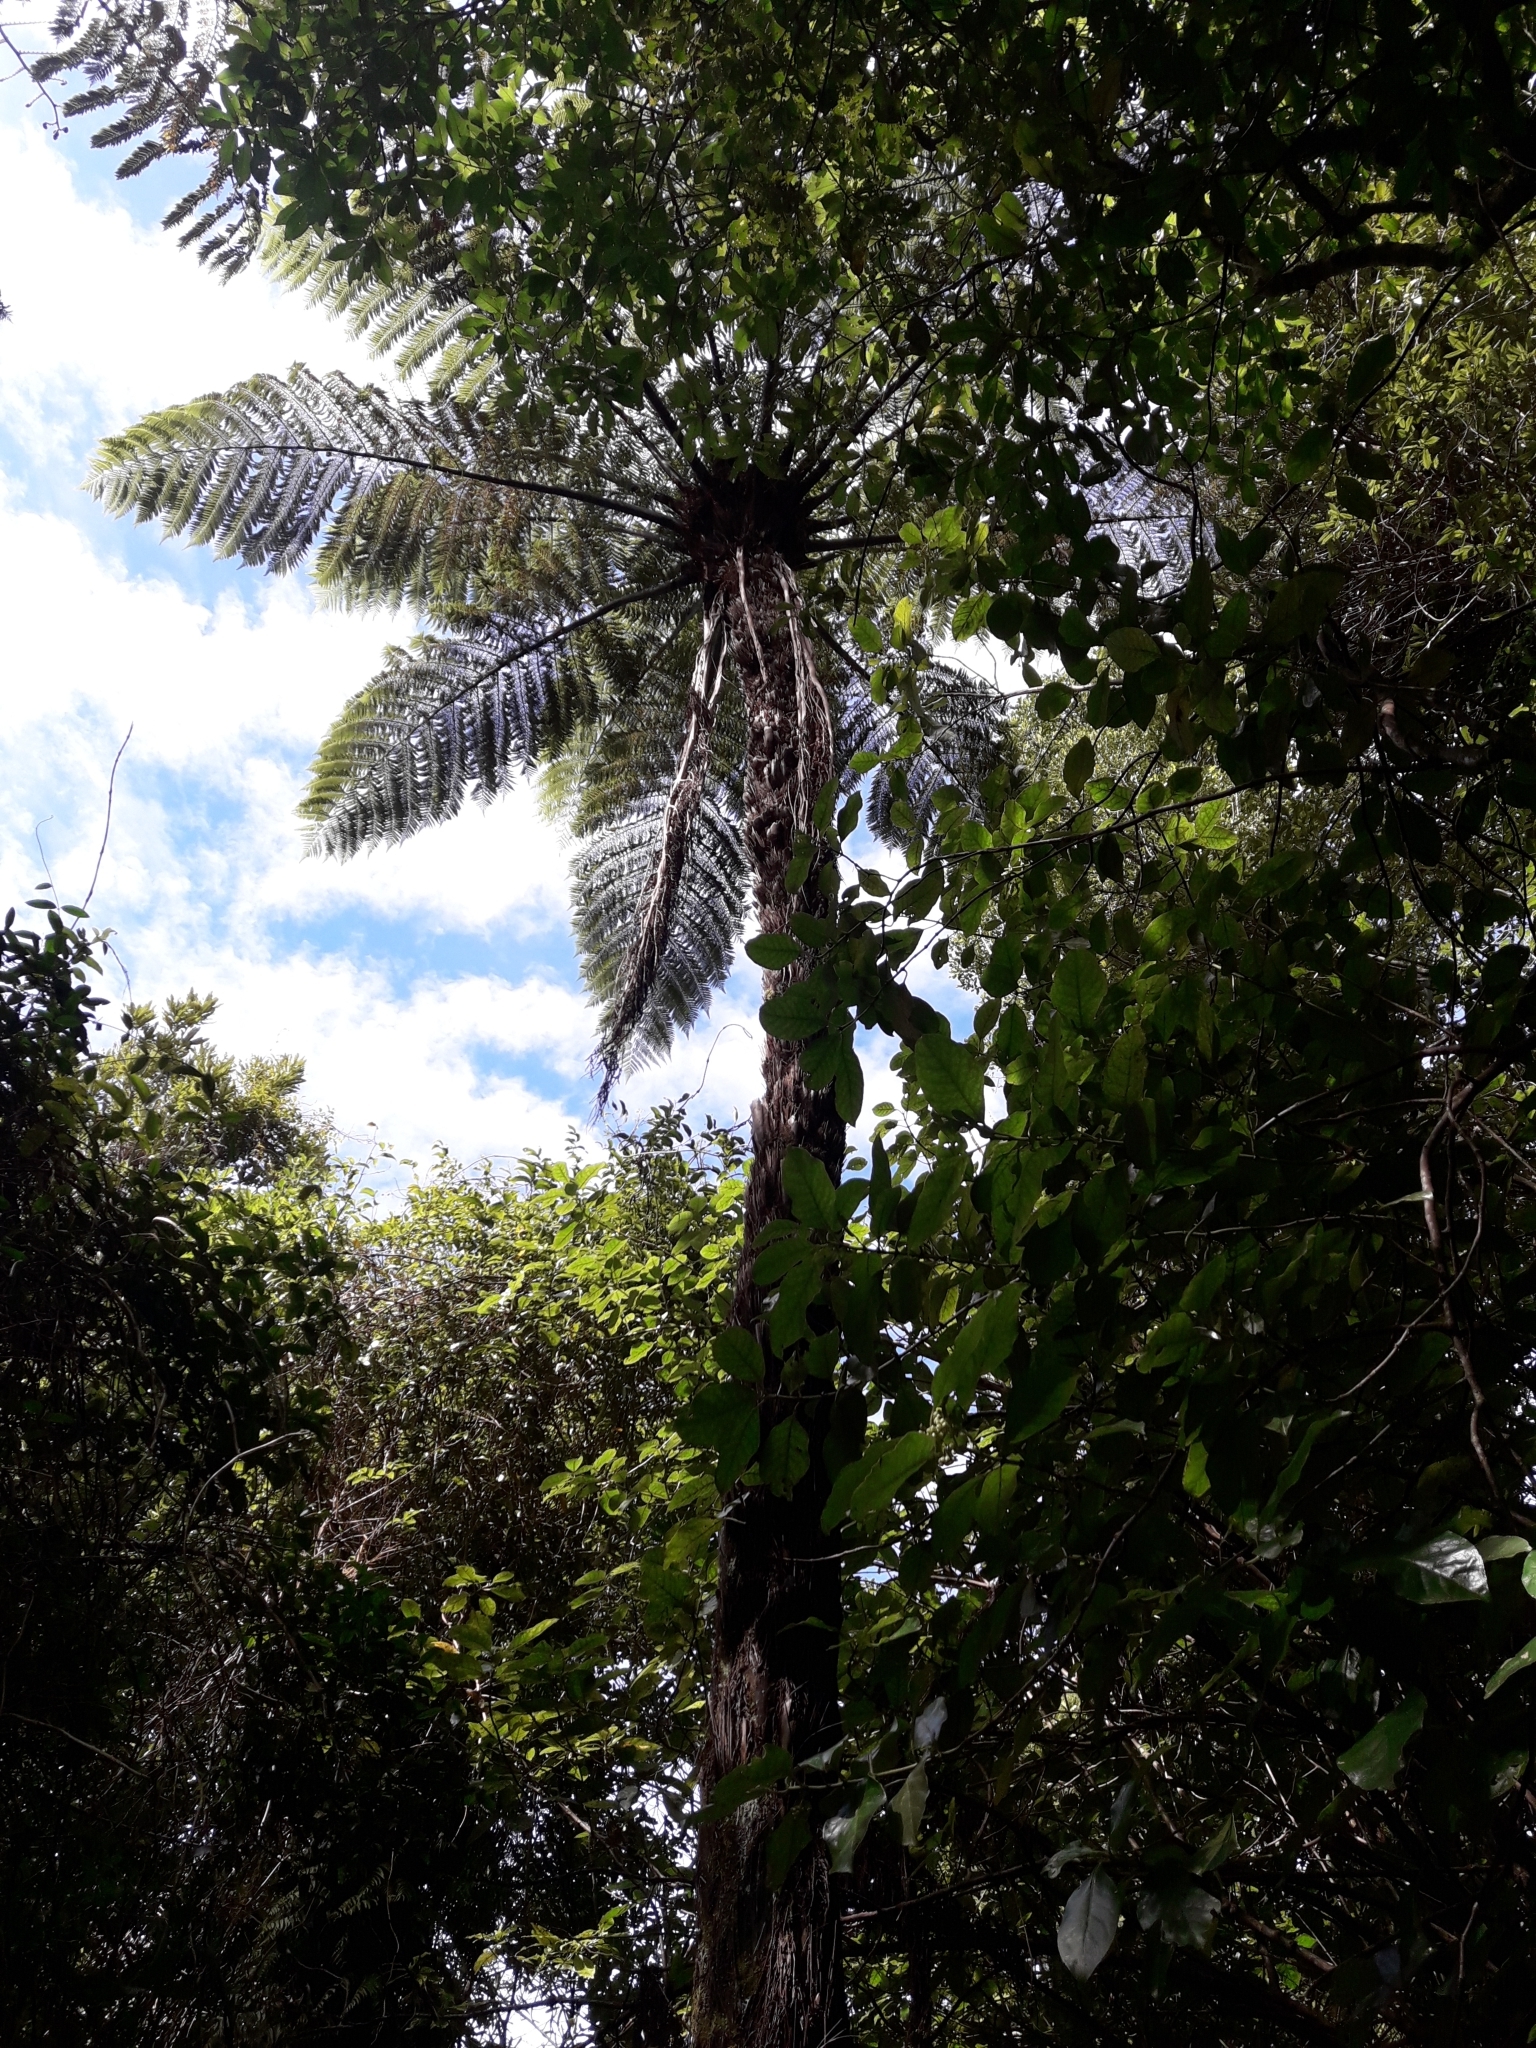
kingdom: Plantae
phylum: Tracheophyta
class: Polypodiopsida
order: Cyatheales
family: Cyatheaceae
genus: Sphaeropteris
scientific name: Sphaeropteris medullaris
